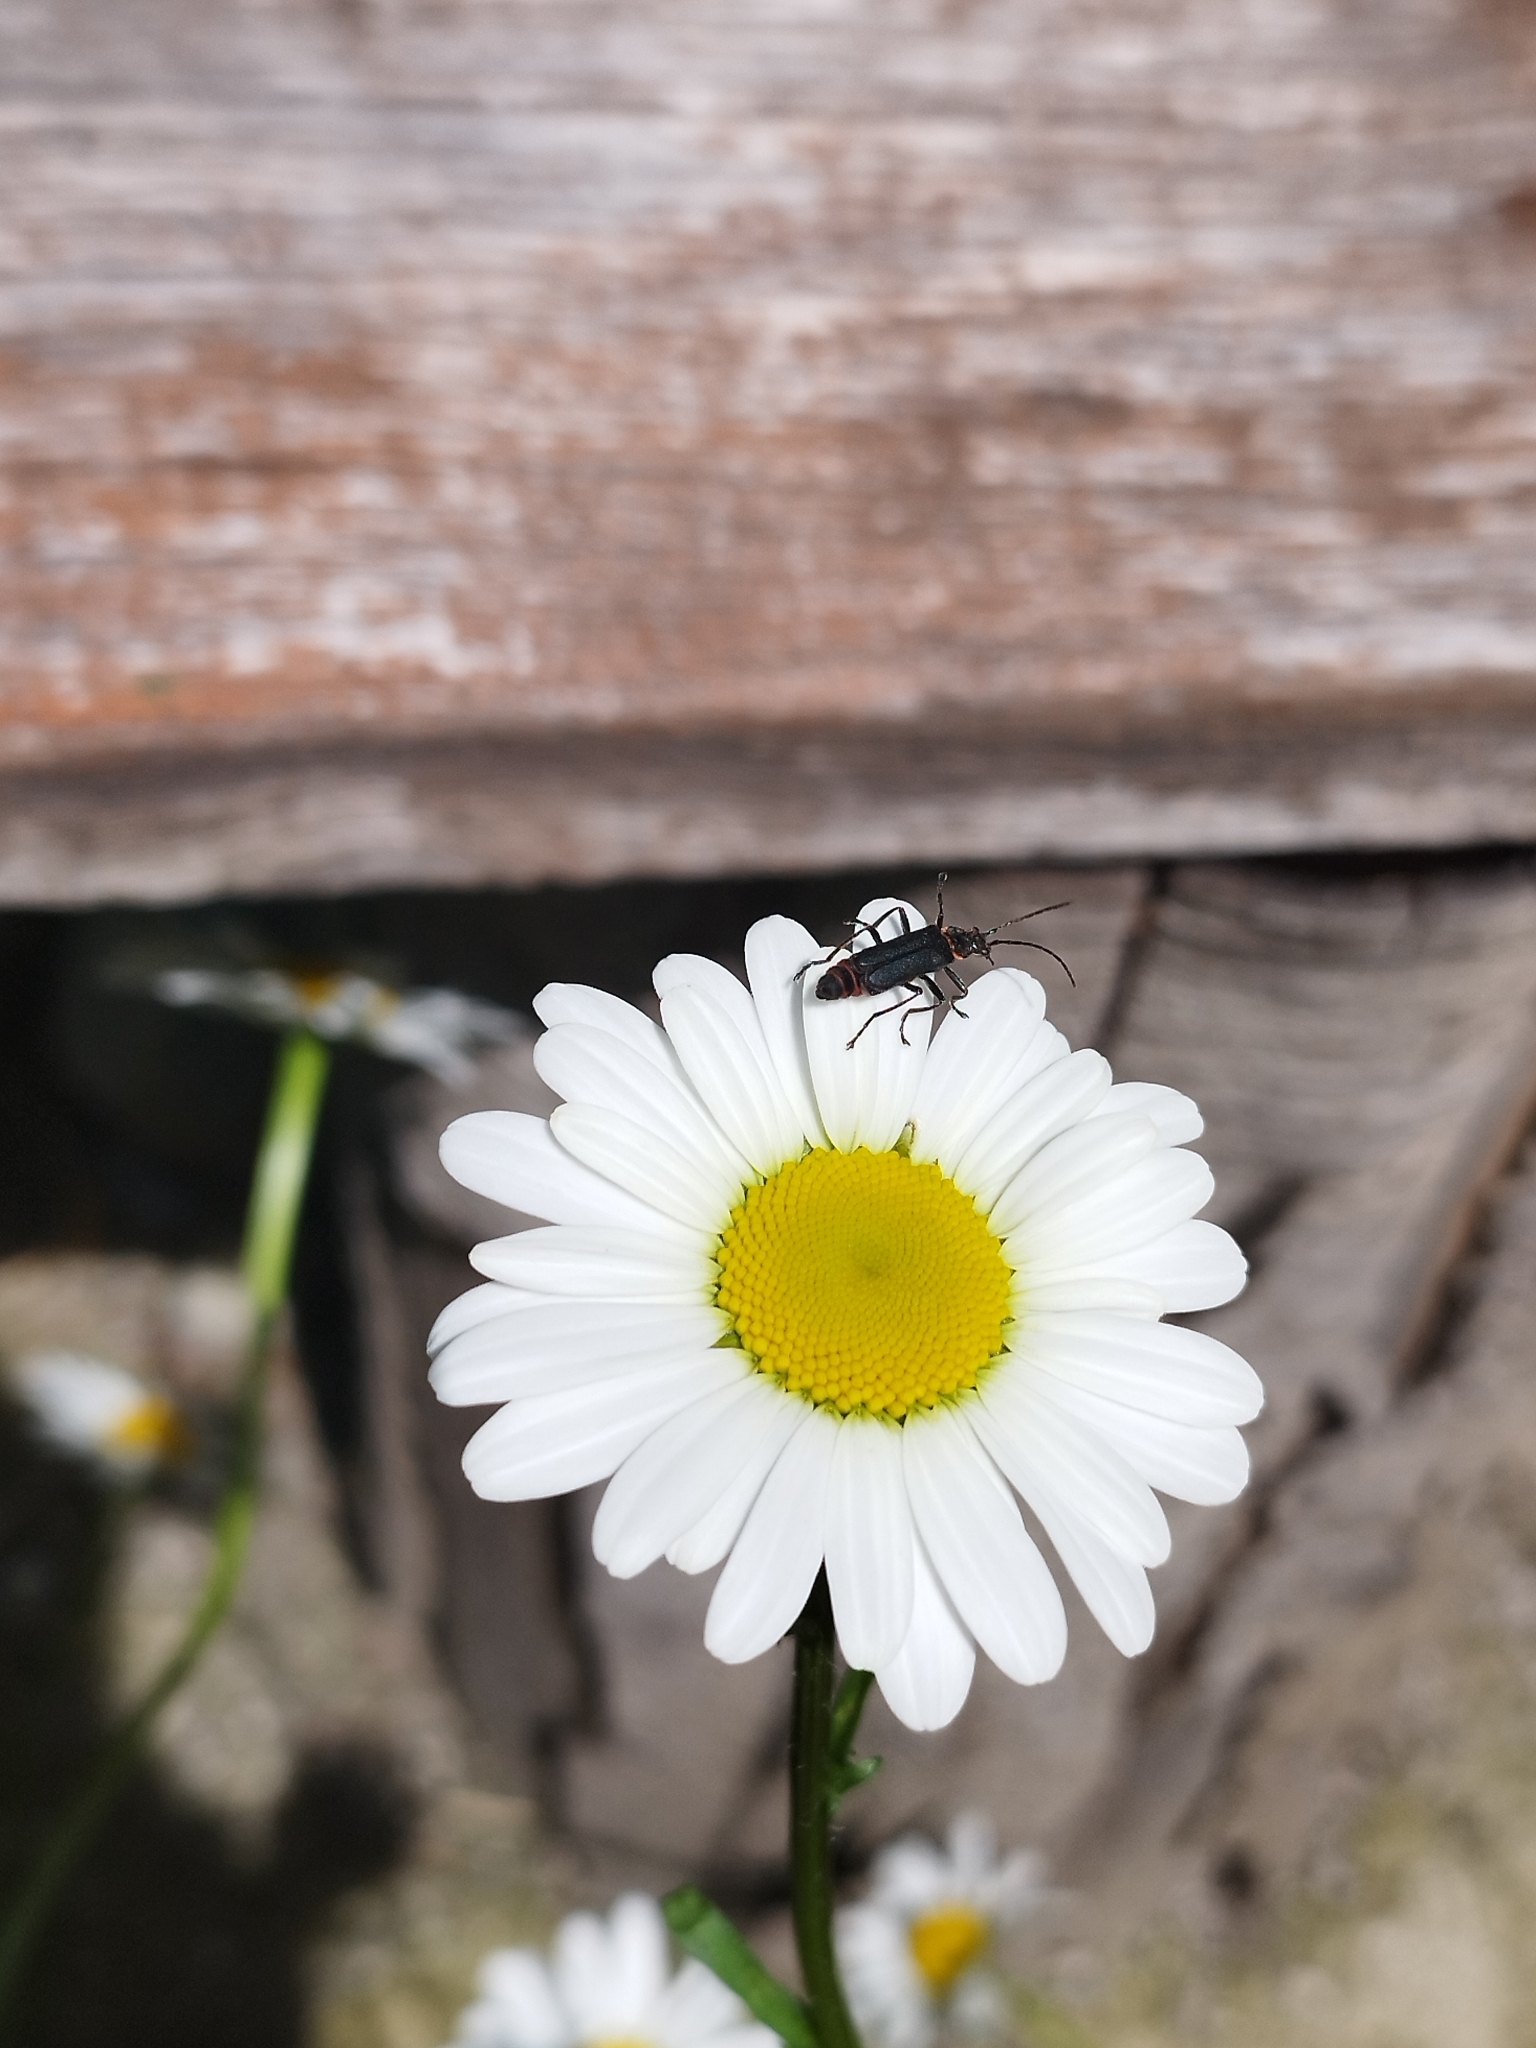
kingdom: Animalia
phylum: Arthropoda
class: Insecta
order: Coleoptera
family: Cantharidae
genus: Chauliognathus
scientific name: Chauliognathus
